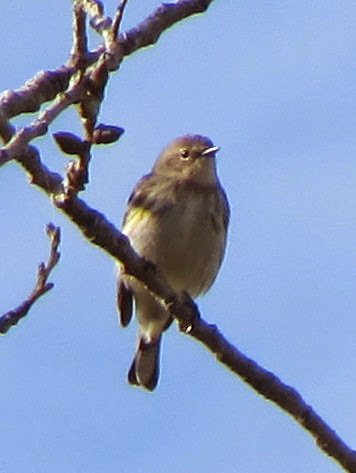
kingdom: Animalia
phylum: Chordata
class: Aves
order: Passeriformes
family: Parulidae
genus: Setophaga
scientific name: Setophaga coronata
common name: Myrtle warbler
